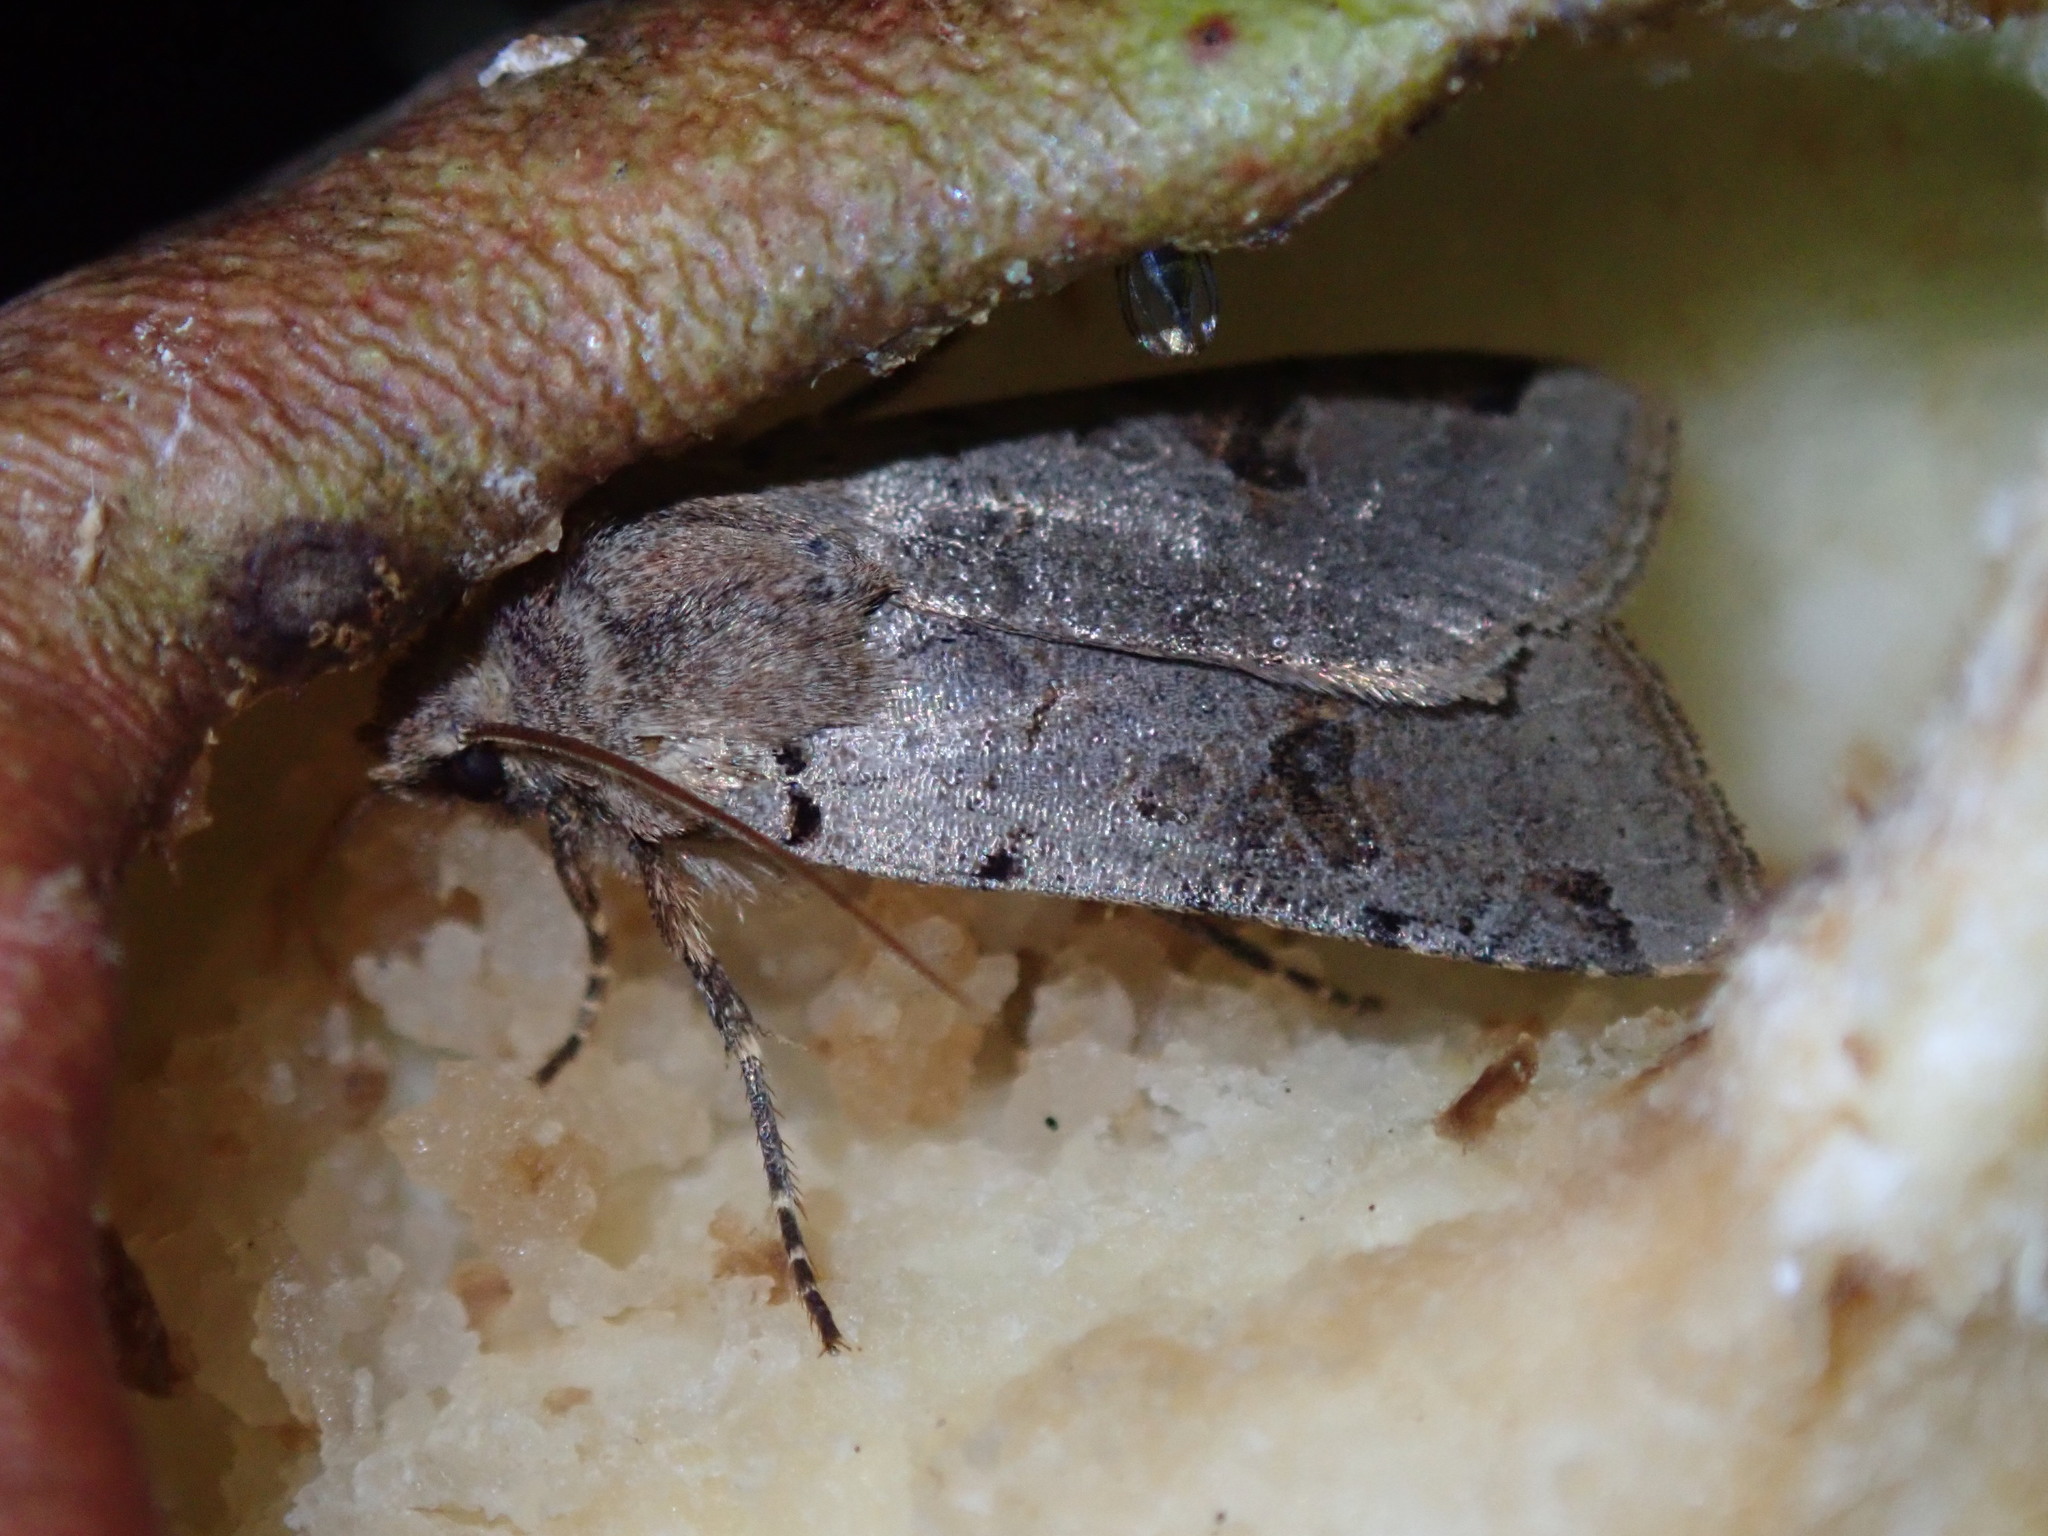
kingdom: Animalia
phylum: Arthropoda
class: Insecta
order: Lepidoptera
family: Noctuidae
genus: Agrochola
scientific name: Agrochola litura
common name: Brown-spot pinion
